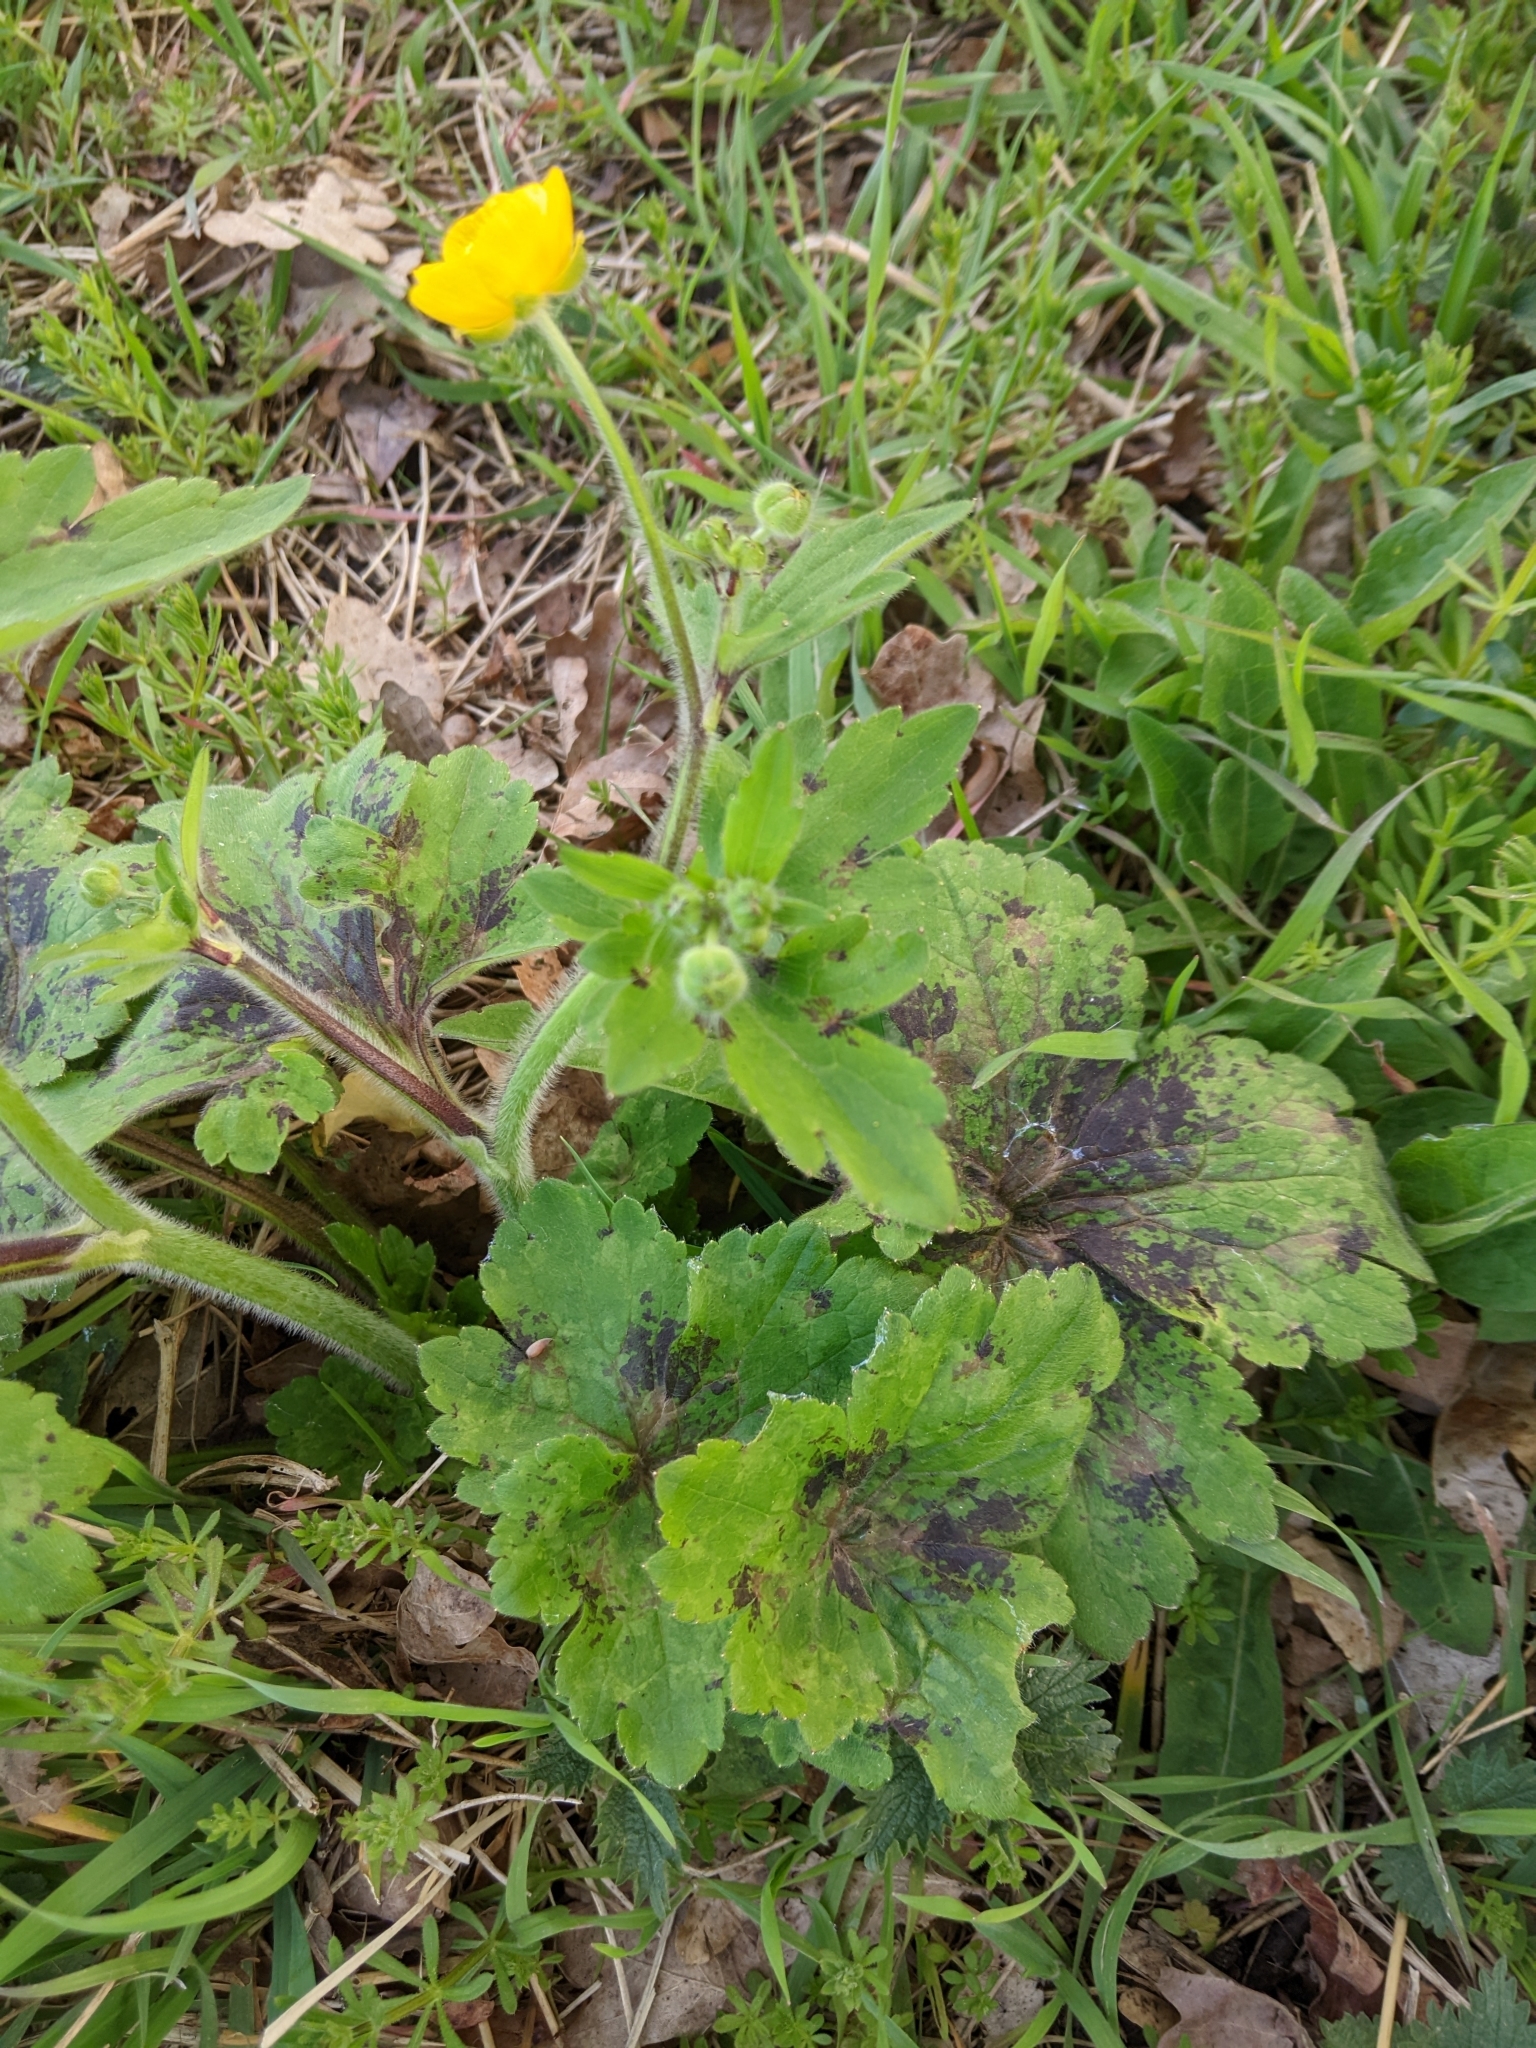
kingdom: Plantae
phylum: Tracheophyta
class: Magnoliopsida
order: Ranunculales
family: Ranunculaceae
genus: Ranunculus
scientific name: Ranunculus lanuginosus
